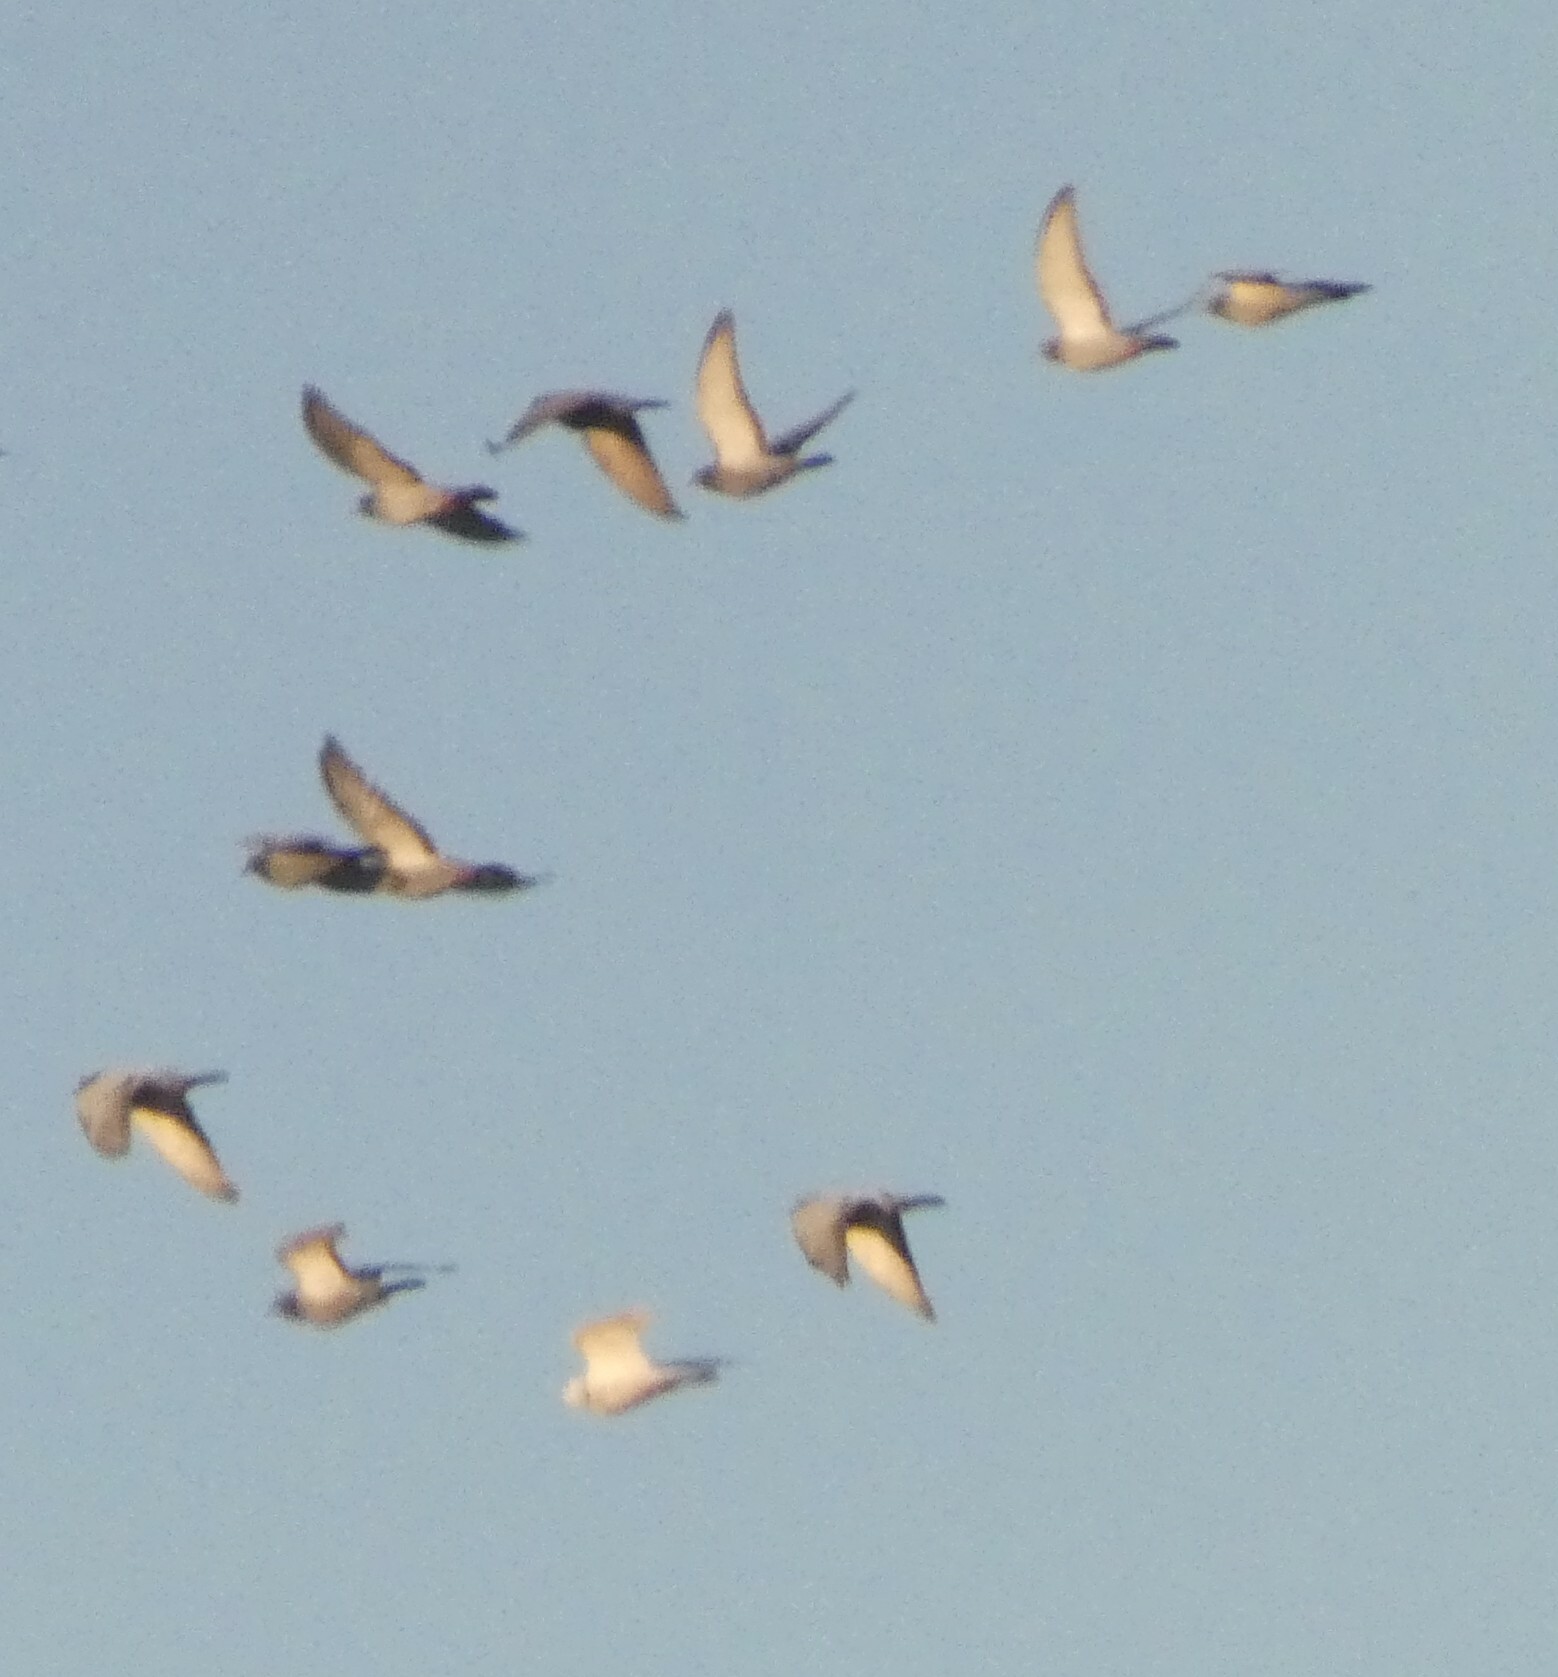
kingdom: Animalia
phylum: Chordata
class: Aves
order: Columbiformes
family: Columbidae
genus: Columba
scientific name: Columba livia
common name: Rock pigeon
